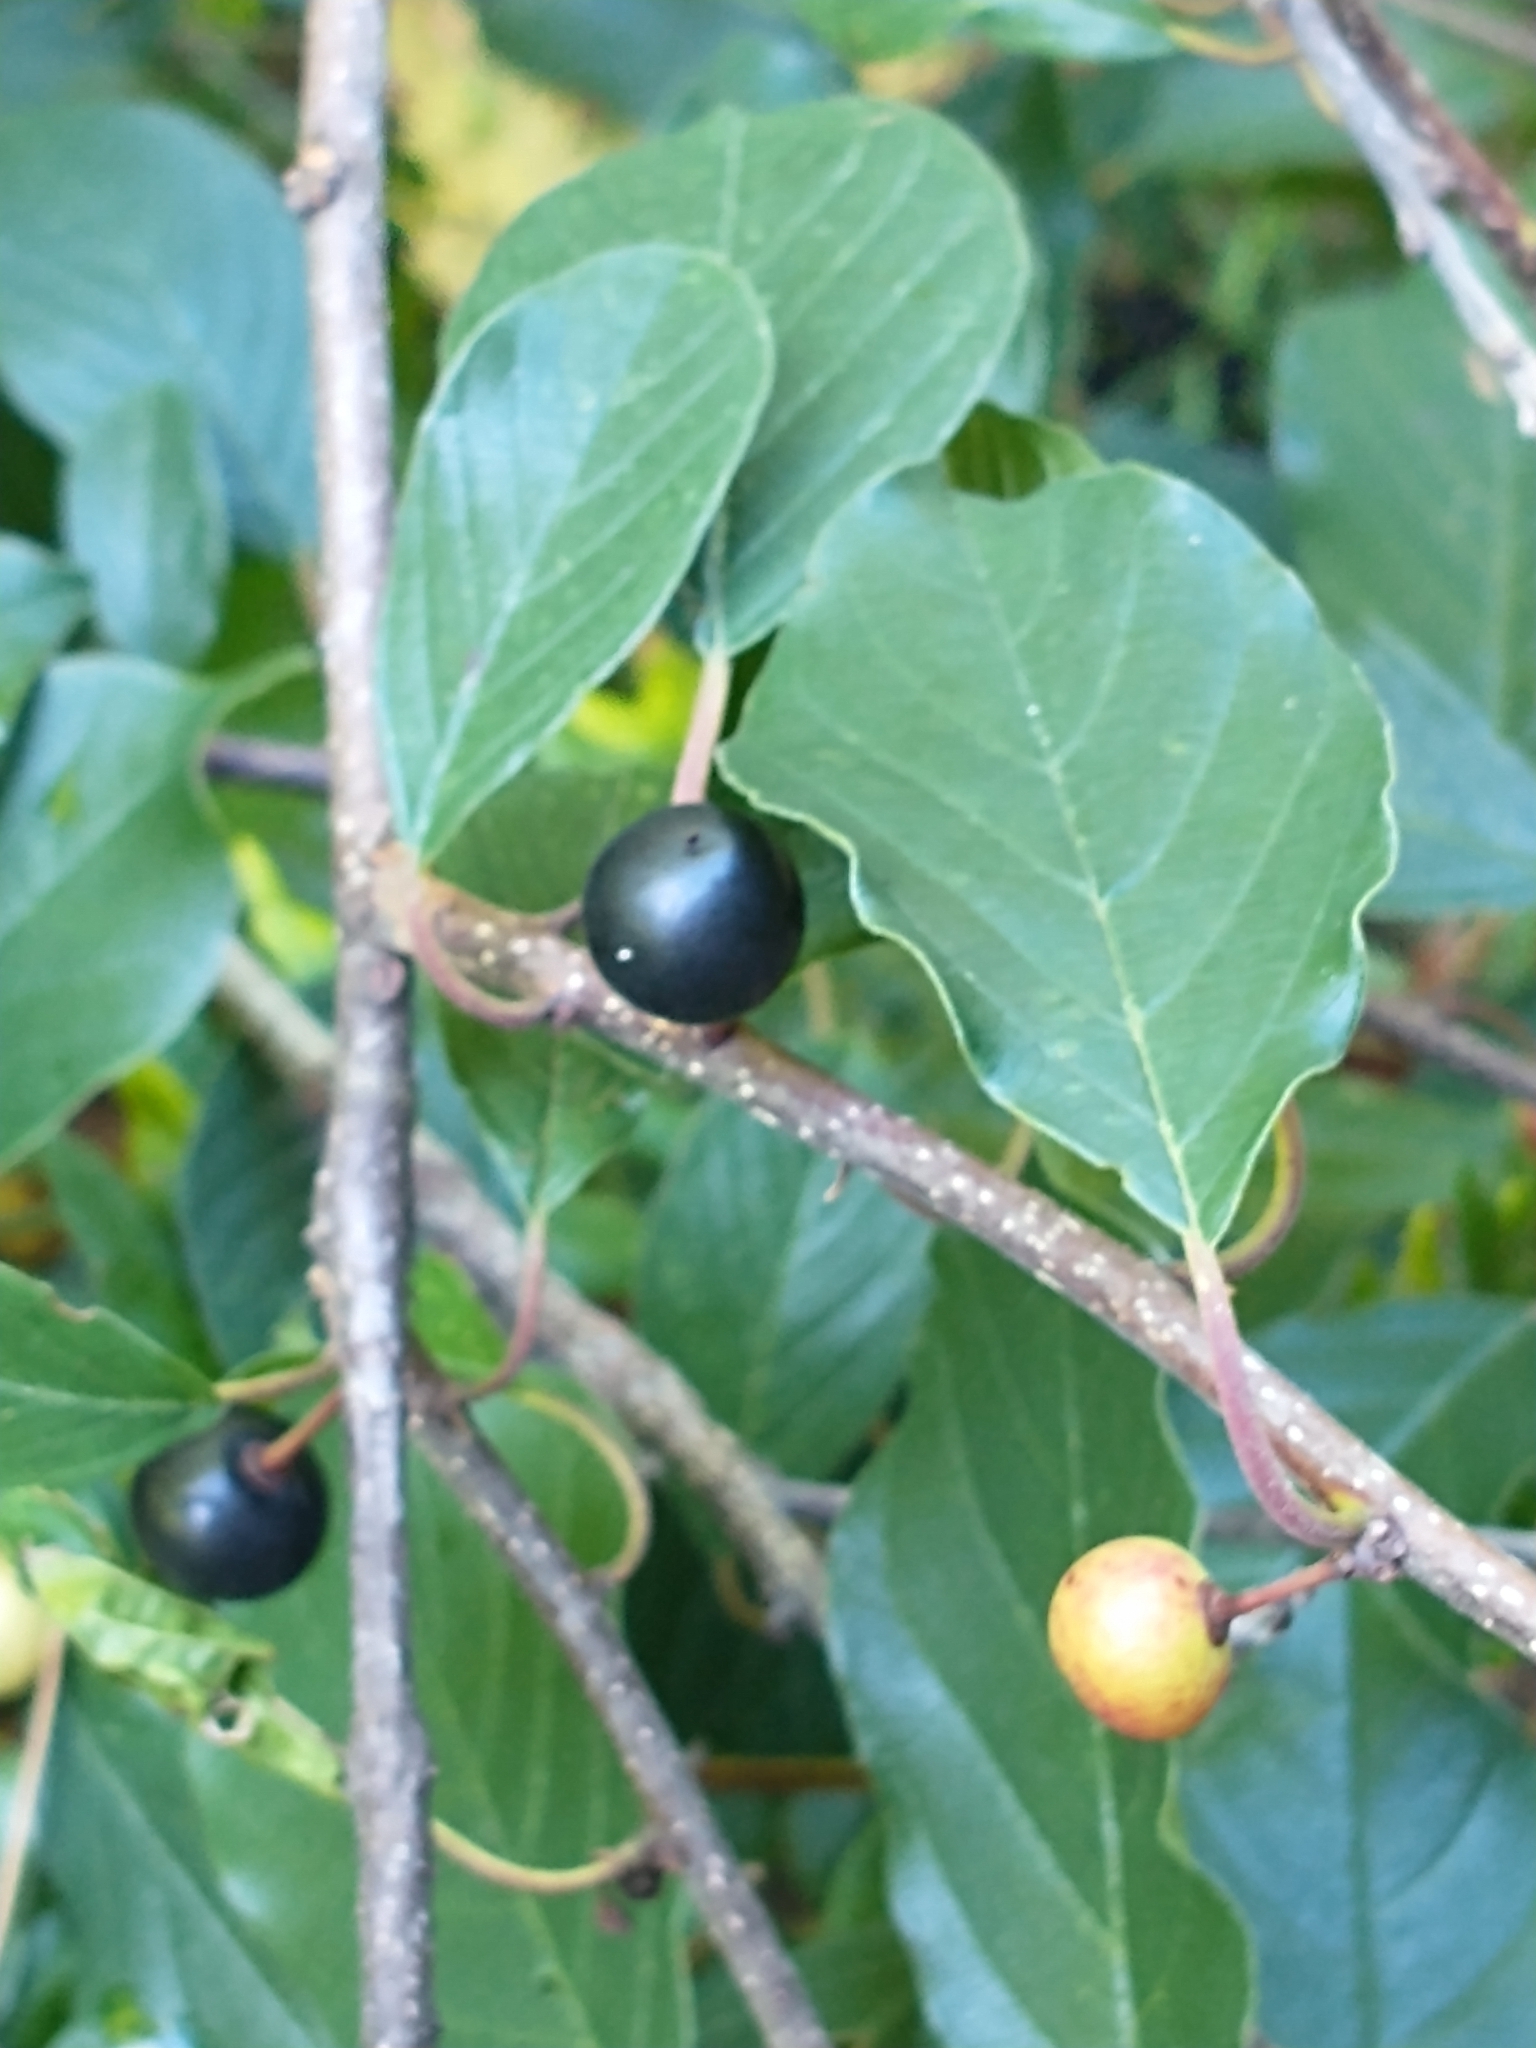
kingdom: Plantae
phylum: Tracheophyta
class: Magnoliopsida
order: Rosales
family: Rhamnaceae
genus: Frangula
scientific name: Frangula alnus
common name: Alder buckthorn
